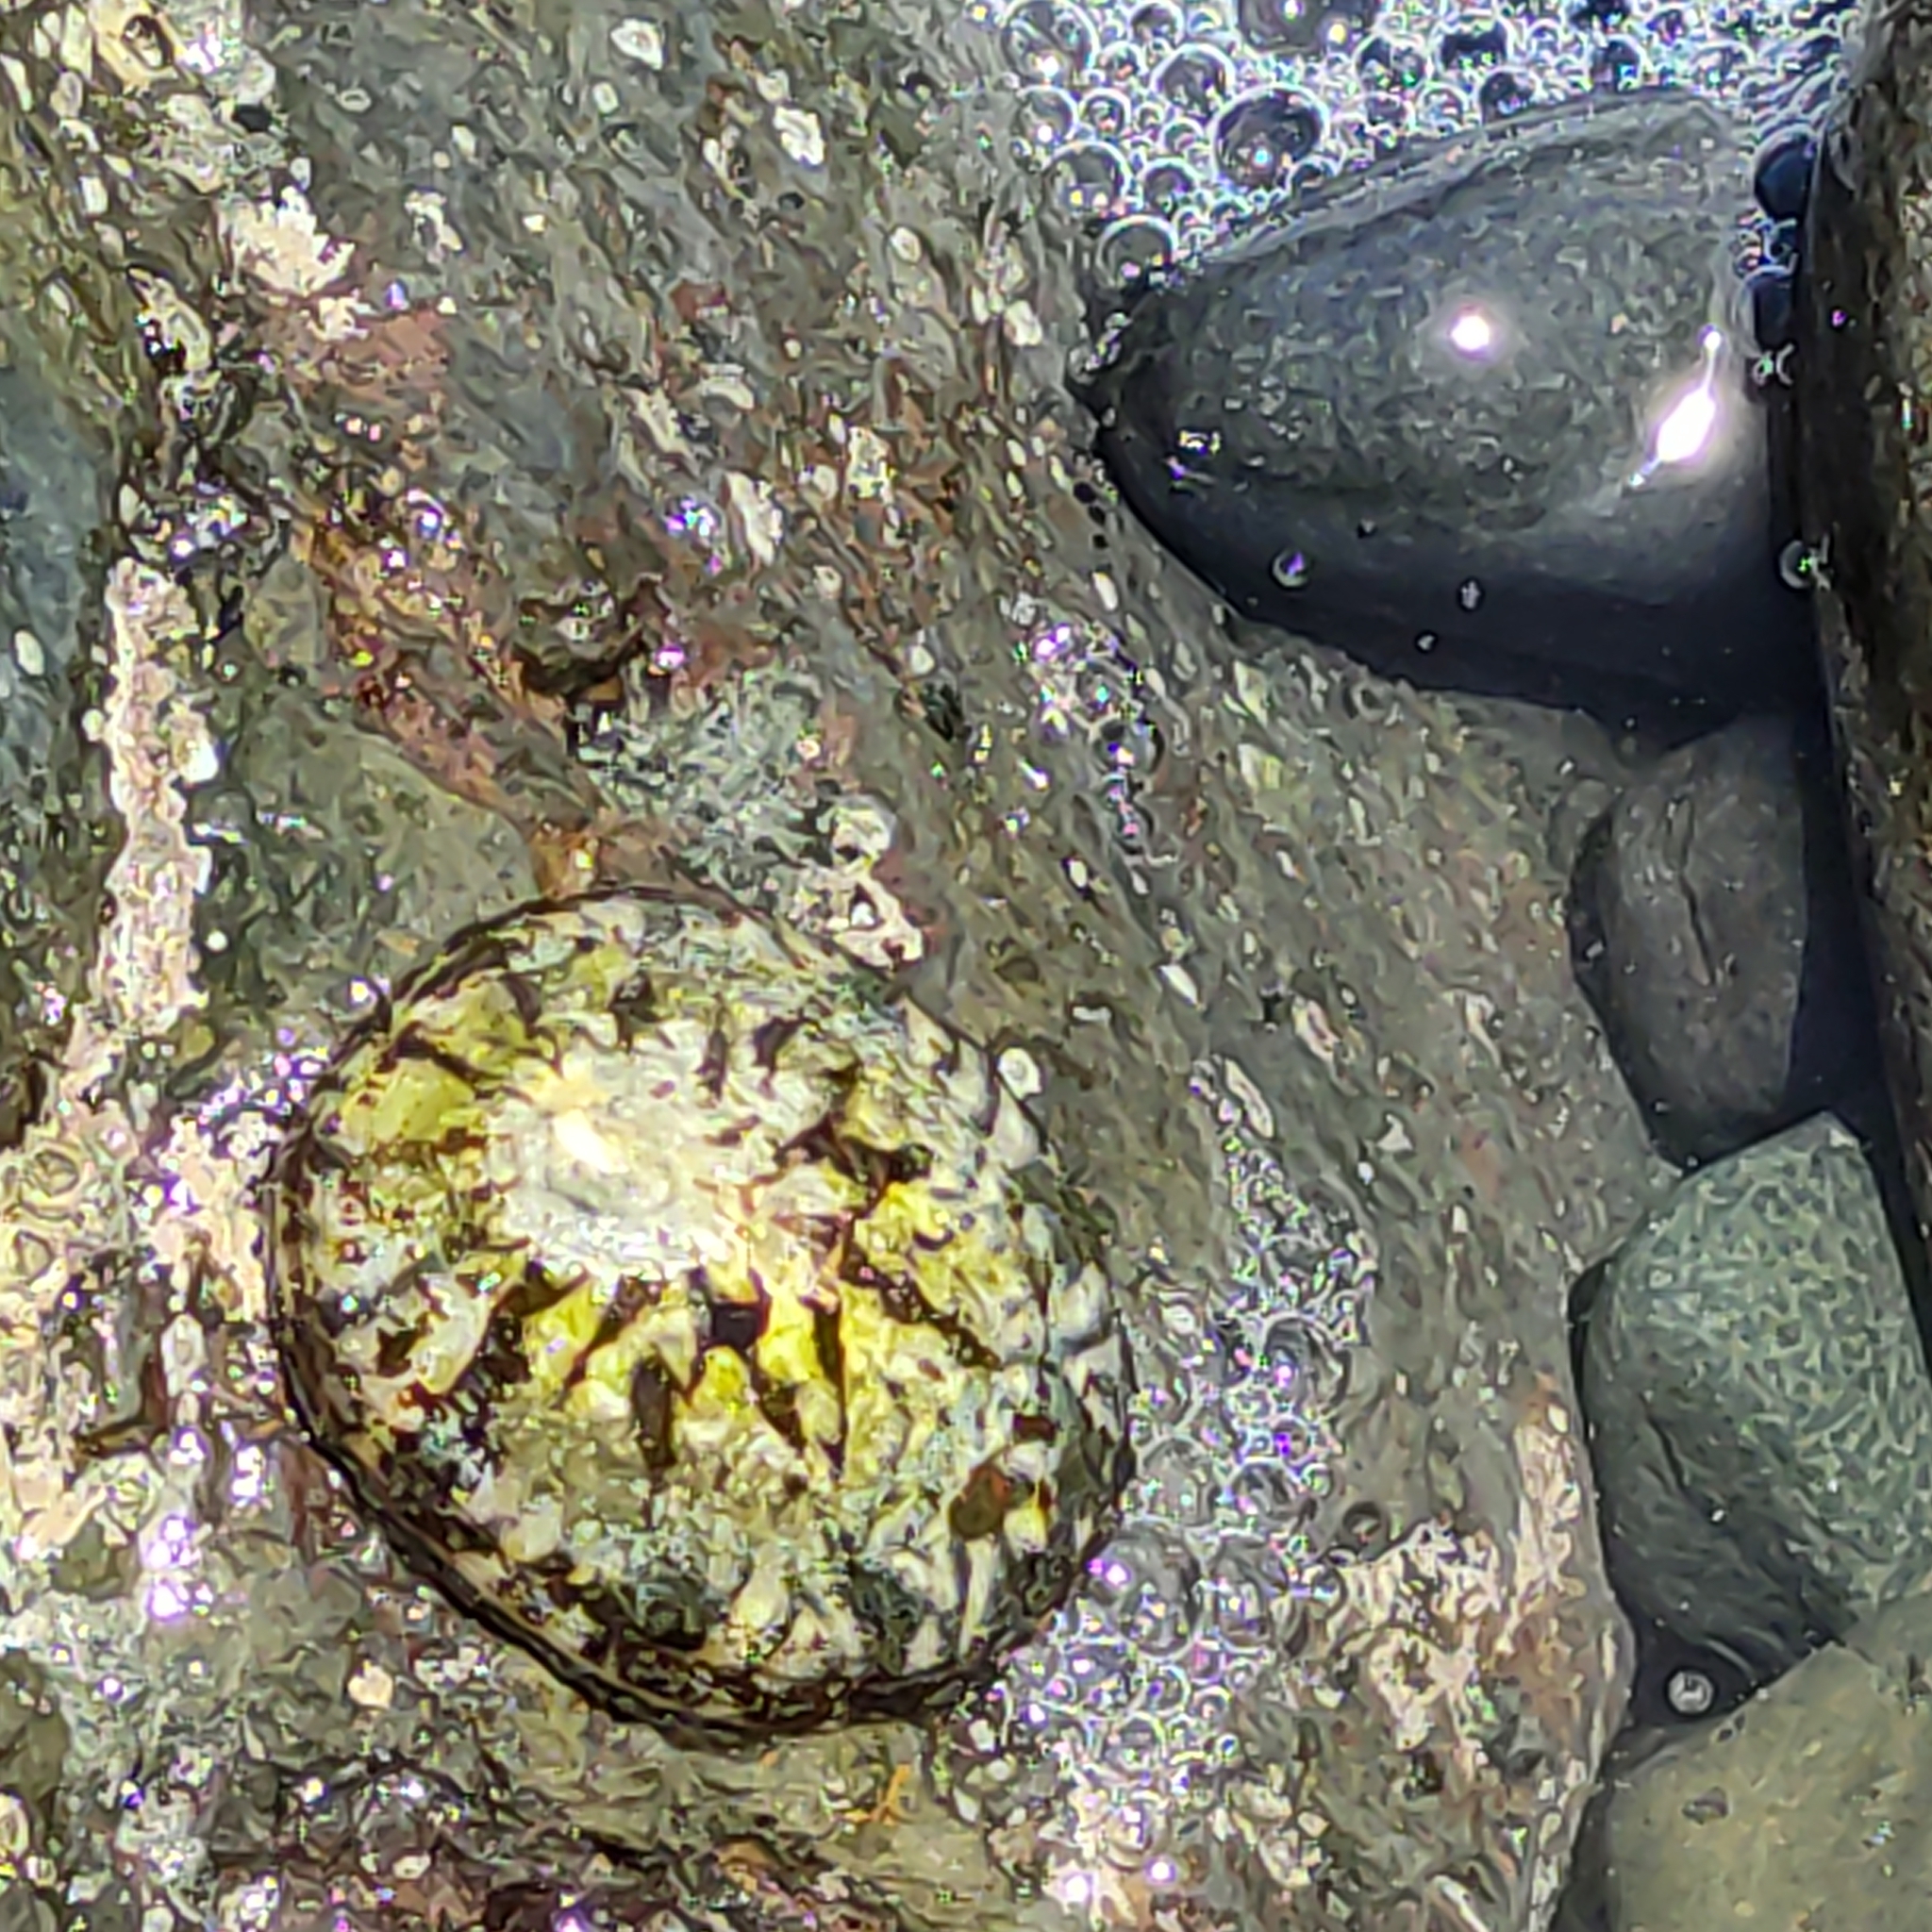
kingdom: Animalia
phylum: Mollusca
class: Gastropoda
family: Nacellidae
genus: Cellana
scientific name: Cellana radians
